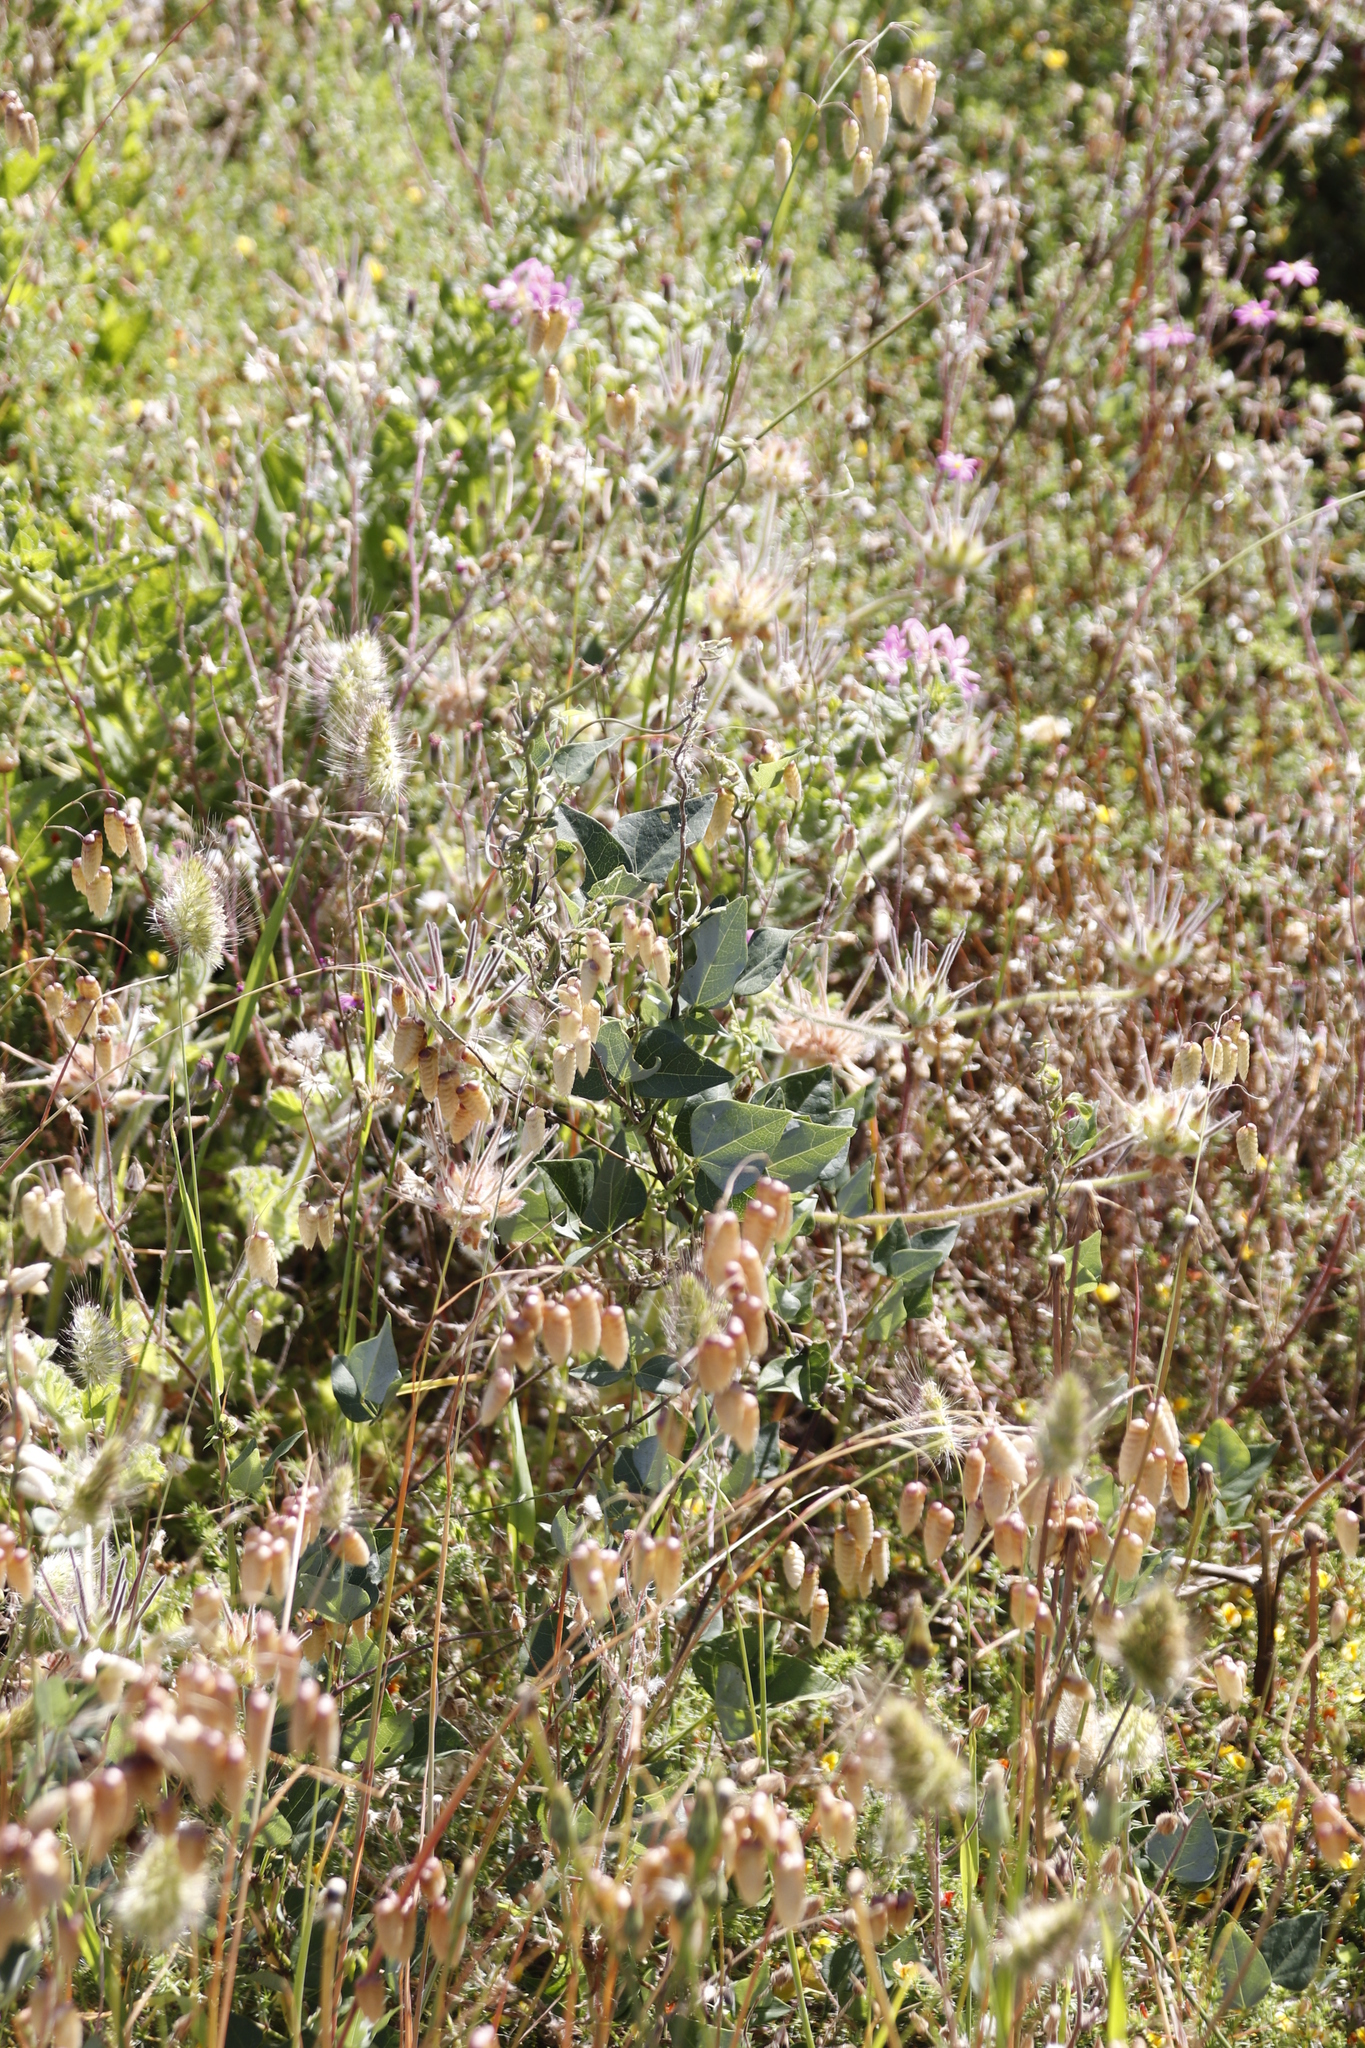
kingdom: Plantae
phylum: Tracheophyta
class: Magnoliopsida
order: Fabales
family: Fabaceae
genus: Dipogon
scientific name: Dipogon lignosus
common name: Okie bean
